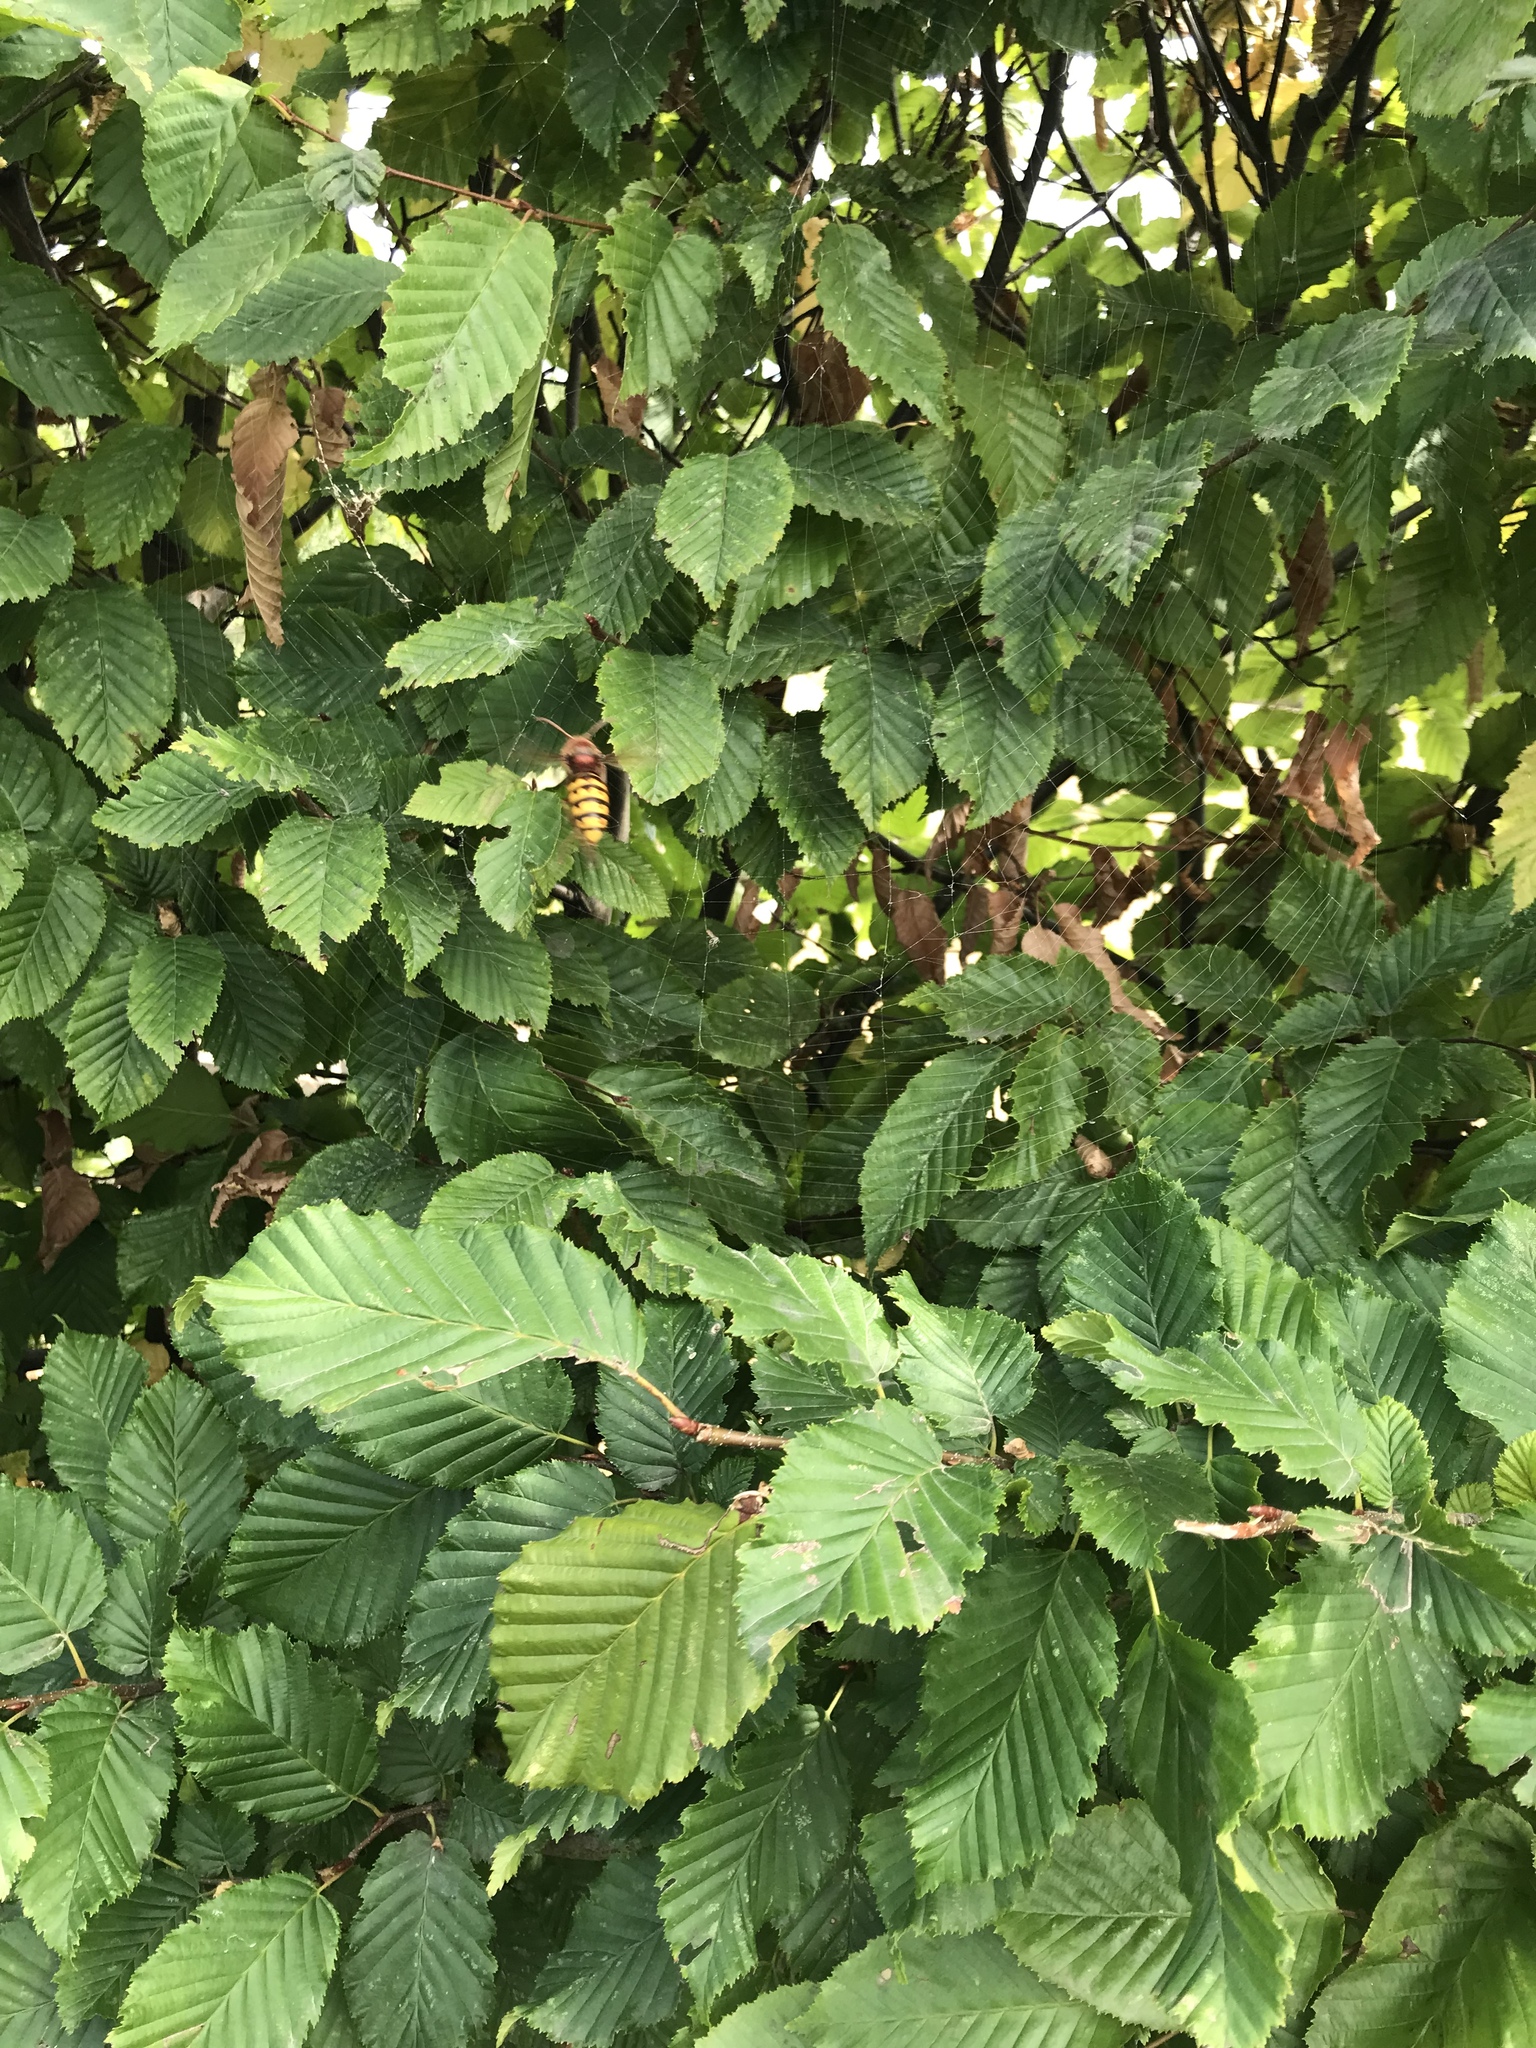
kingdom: Animalia
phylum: Arthropoda
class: Insecta
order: Hymenoptera
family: Vespidae
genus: Vespa
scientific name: Vespa crabro
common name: Hornet
